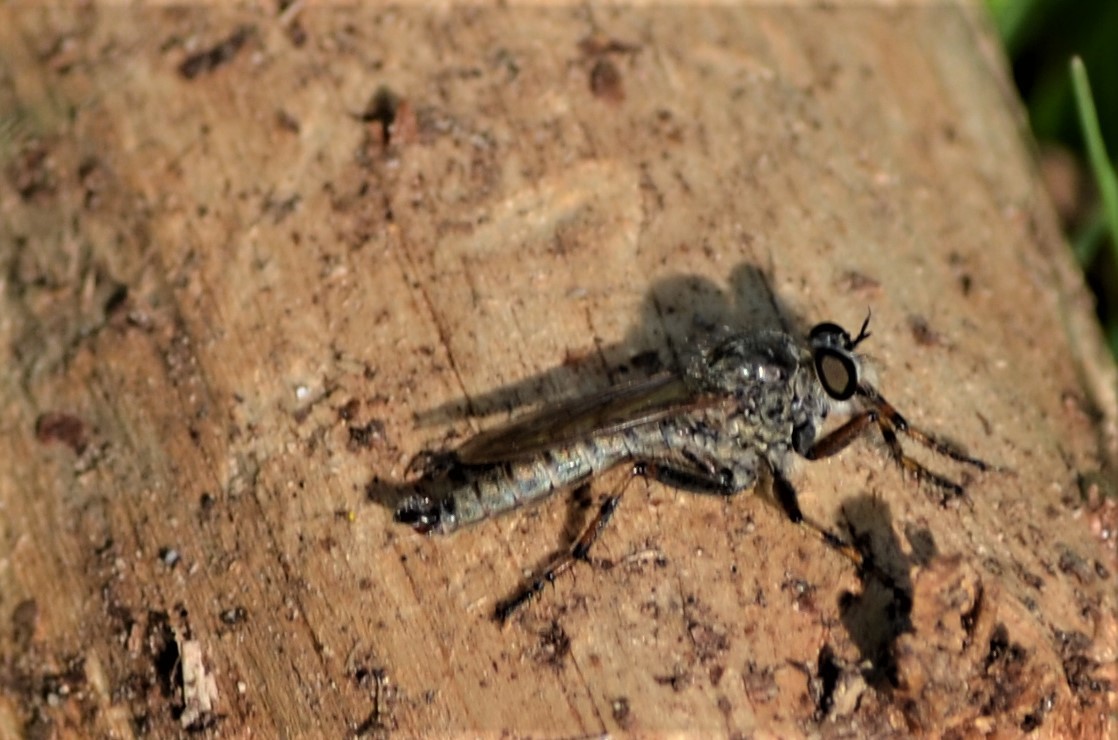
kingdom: Animalia
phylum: Arthropoda
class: Insecta
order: Diptera
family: Asilidae
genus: Epitriptus
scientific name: Epitriptus cingulatus
